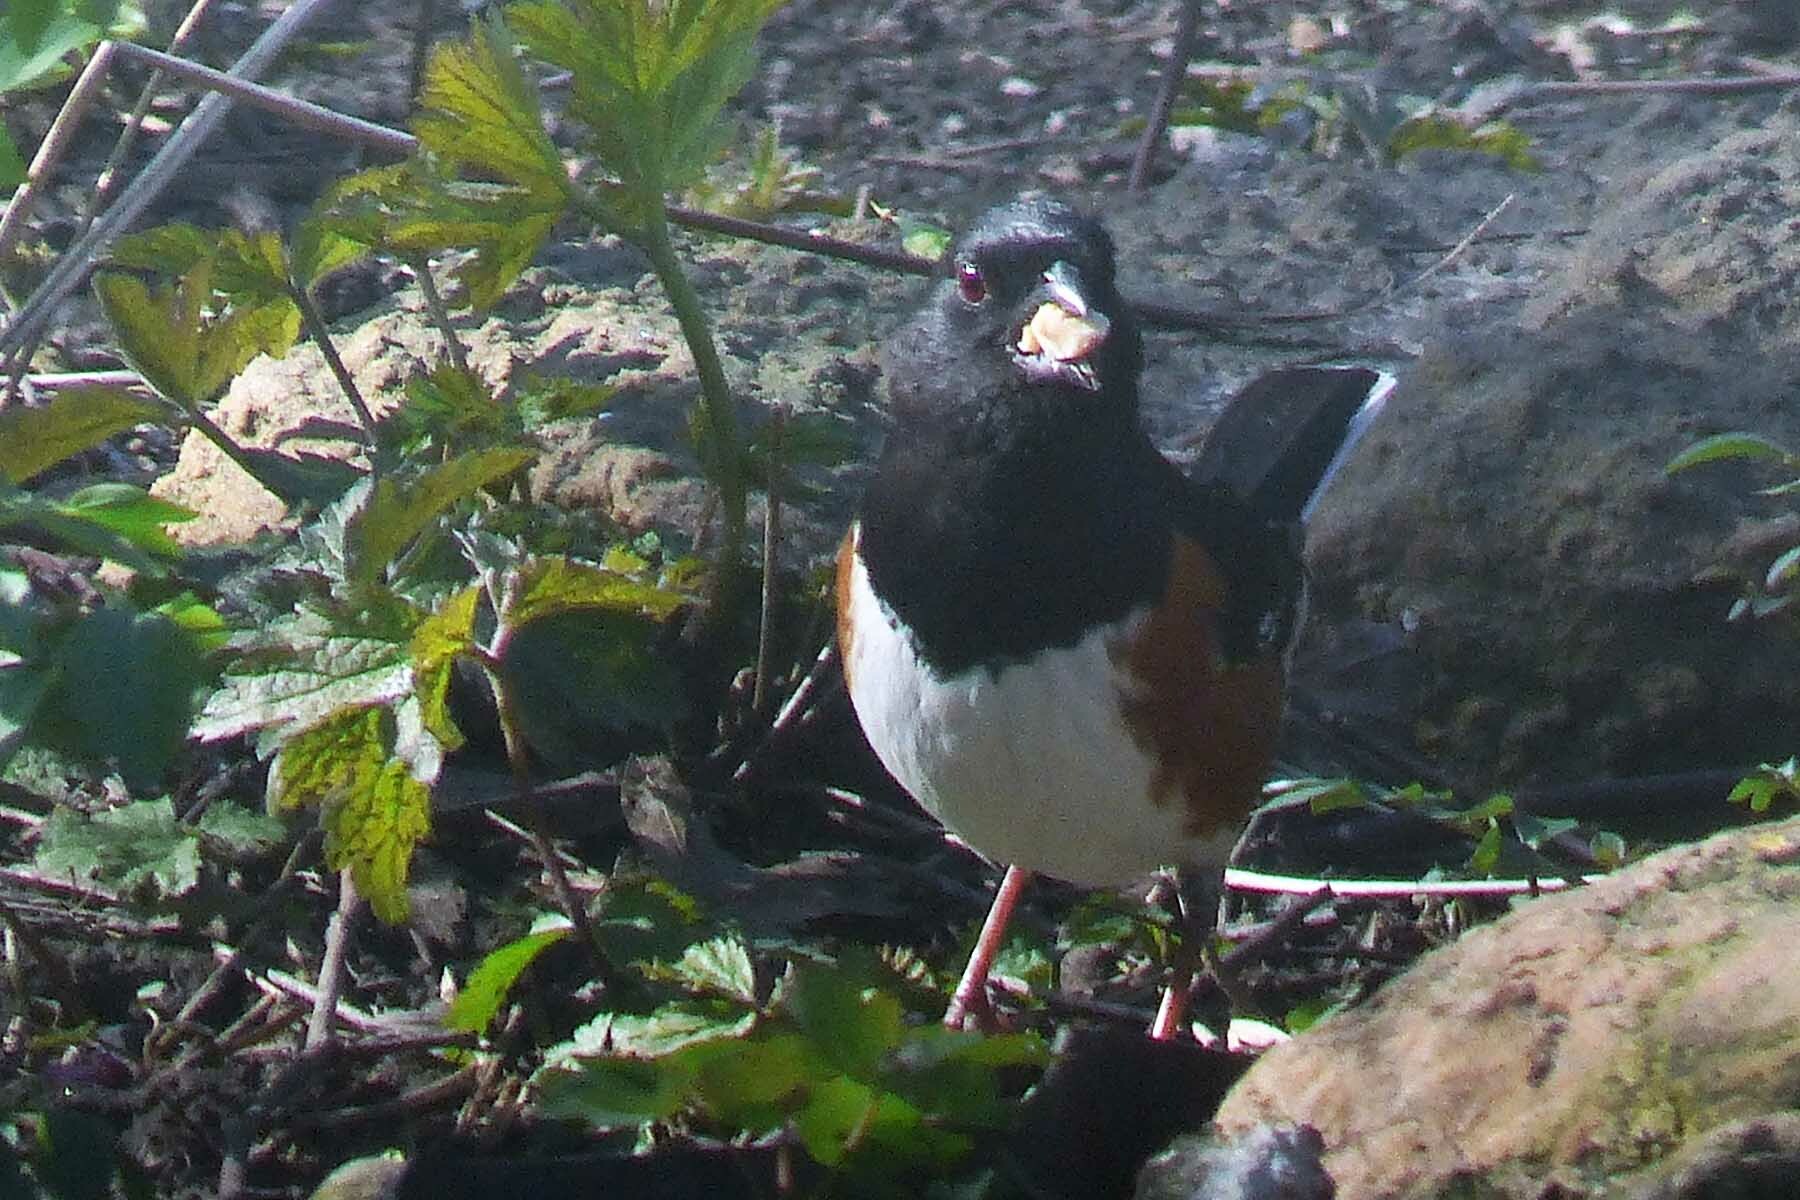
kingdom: Animalia
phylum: Chordata
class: Aves
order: Passeriformes
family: Passerellidae
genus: Pipilo
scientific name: Pipilo erythrophthalmus
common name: Eastern towhee
